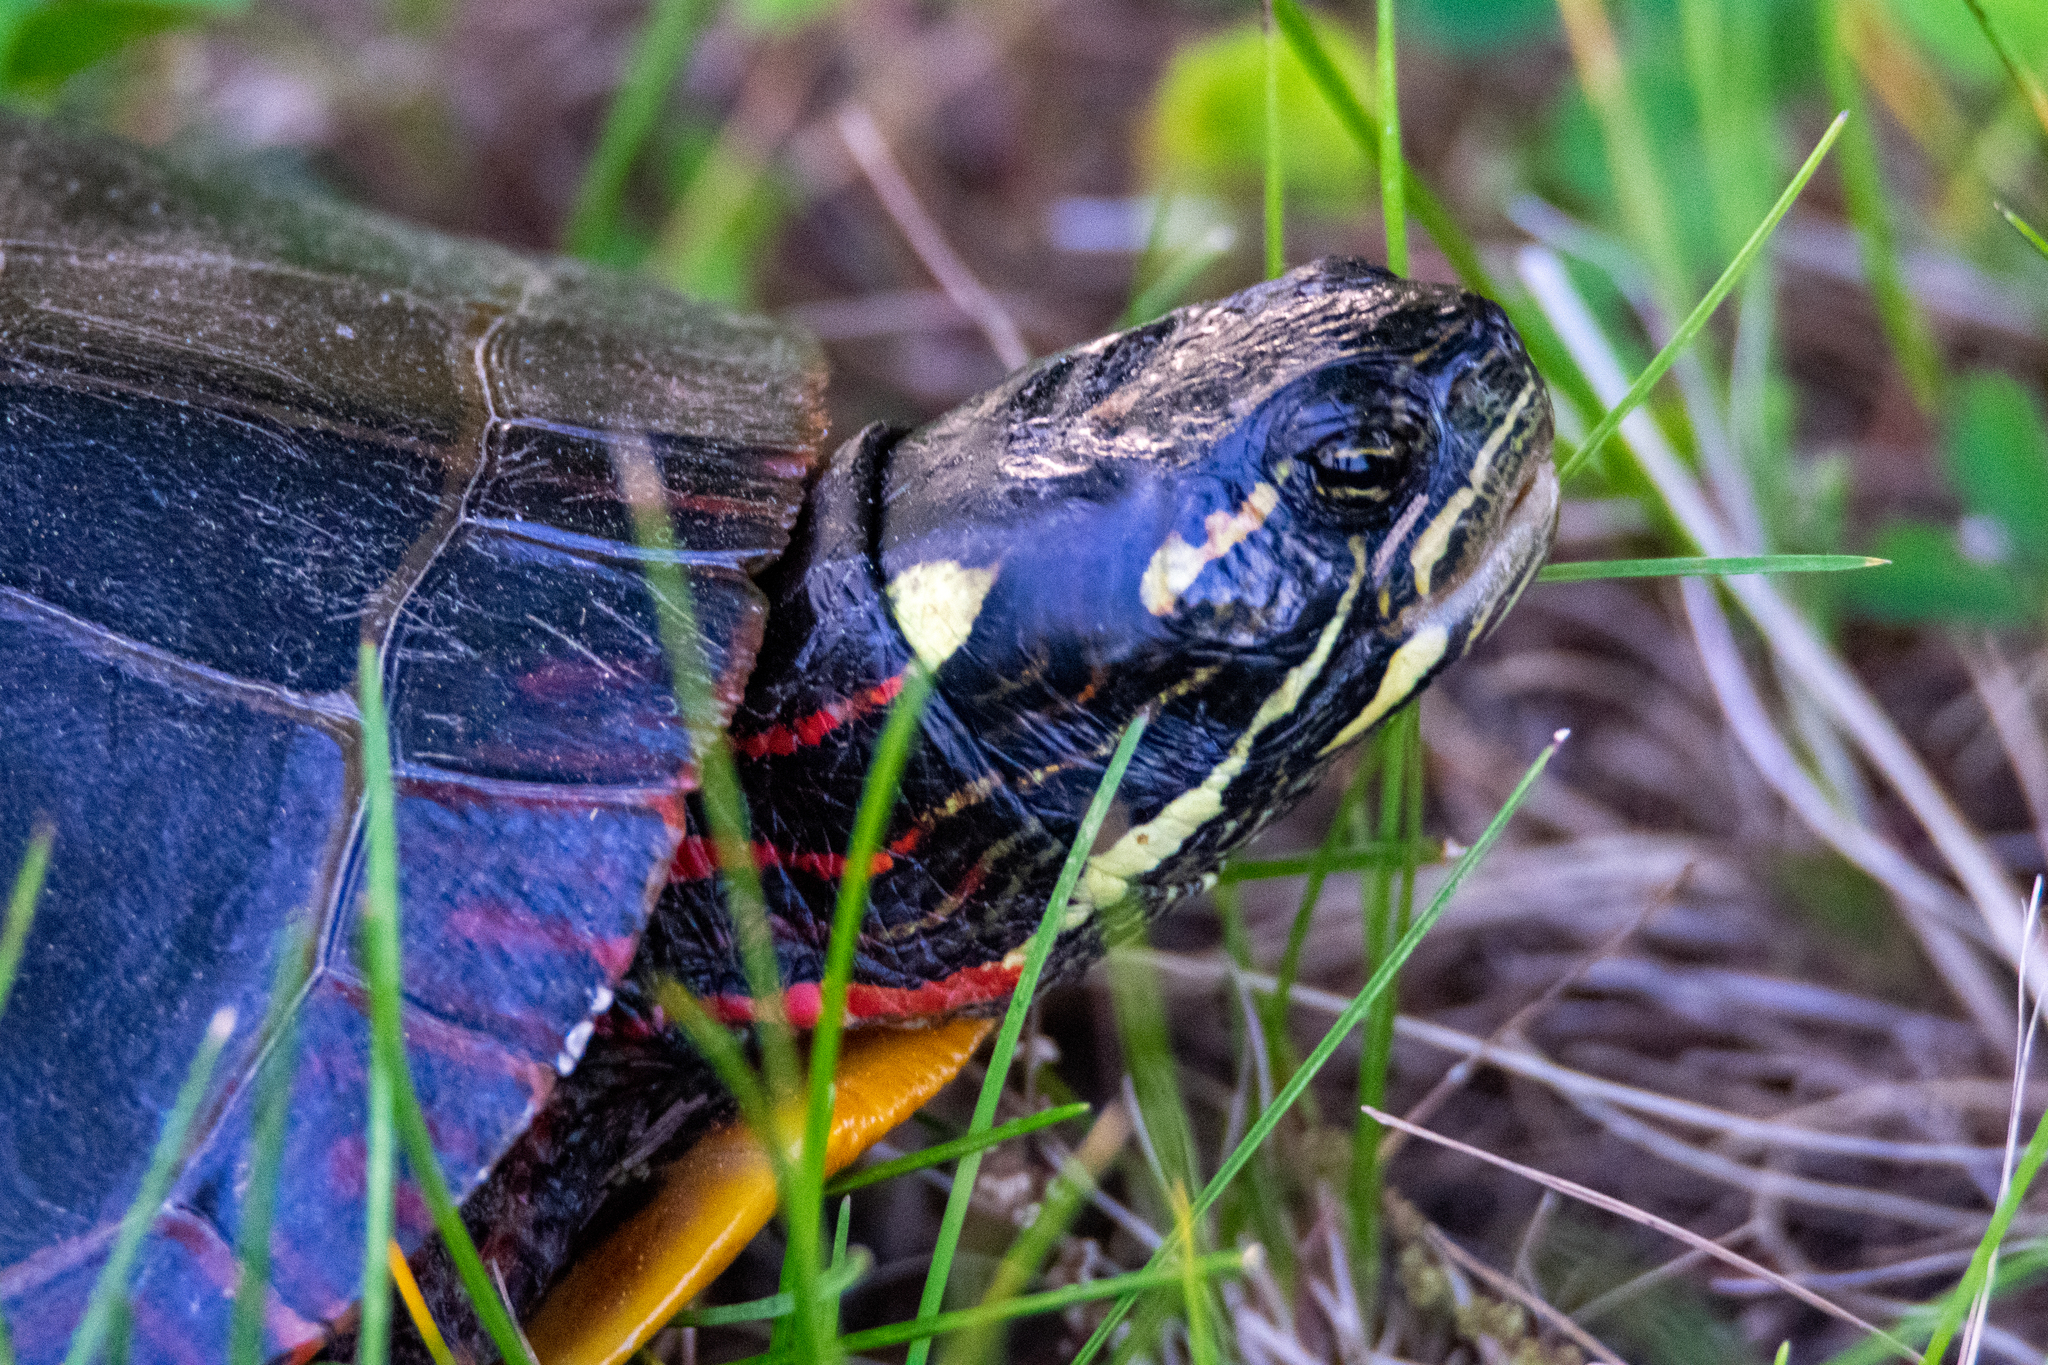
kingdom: Animalia
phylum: Chordata
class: Testudines
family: Emydidae
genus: Chrysemys
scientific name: Chrysemys picta
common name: Painted turtle
